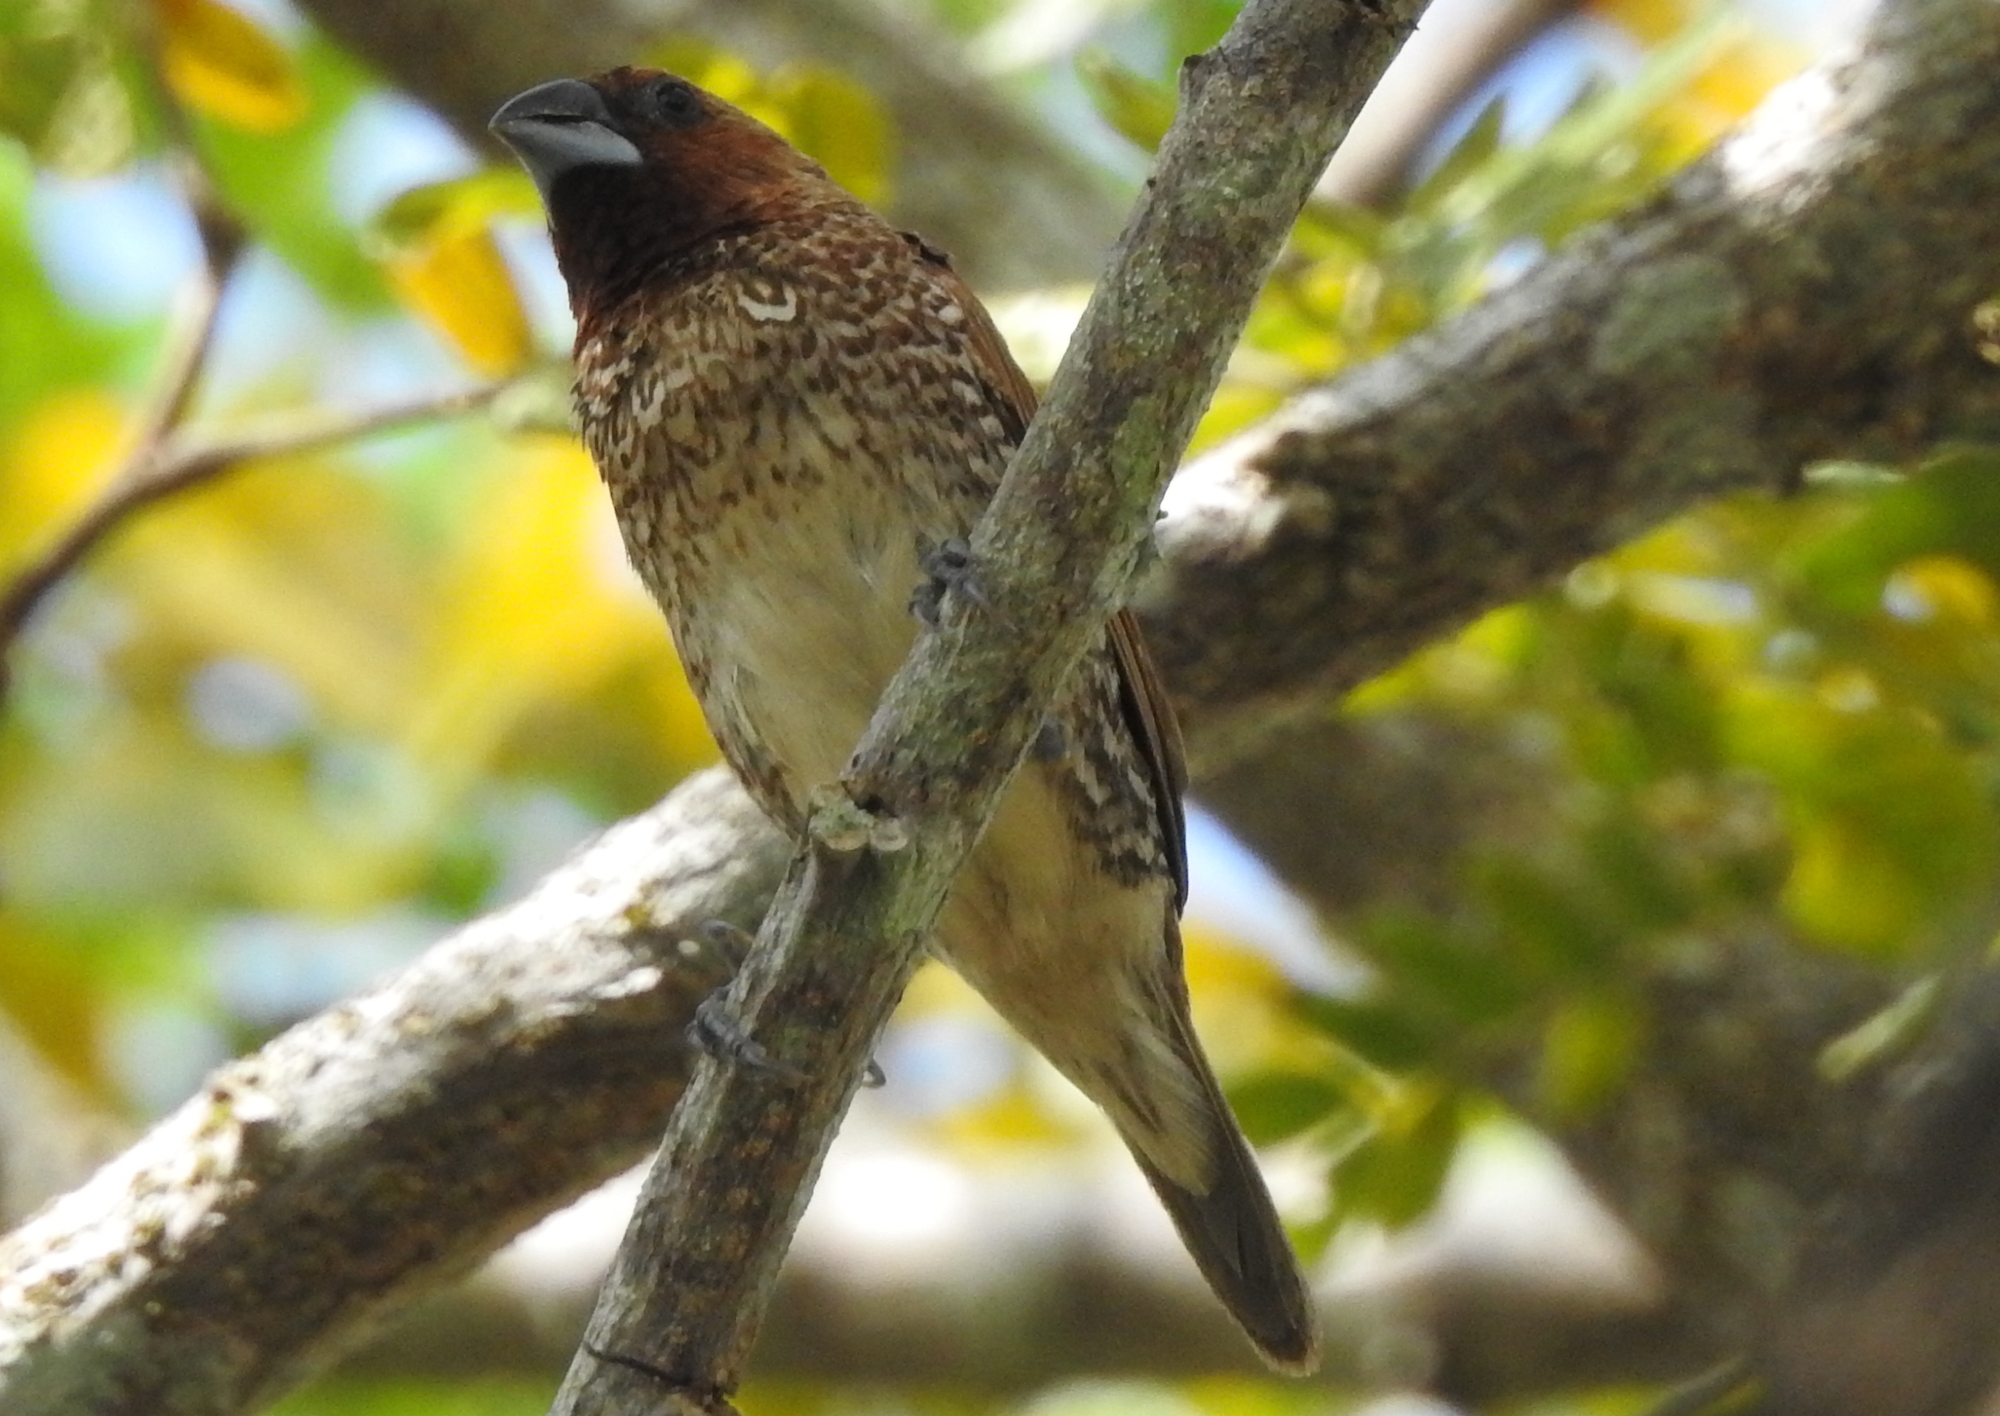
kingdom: Animalia
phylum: Chordata
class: Aves
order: Passeriformes
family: Estrildidae
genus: Lonchura
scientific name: Lonchura punctulata
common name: Scaly-breasted munia
